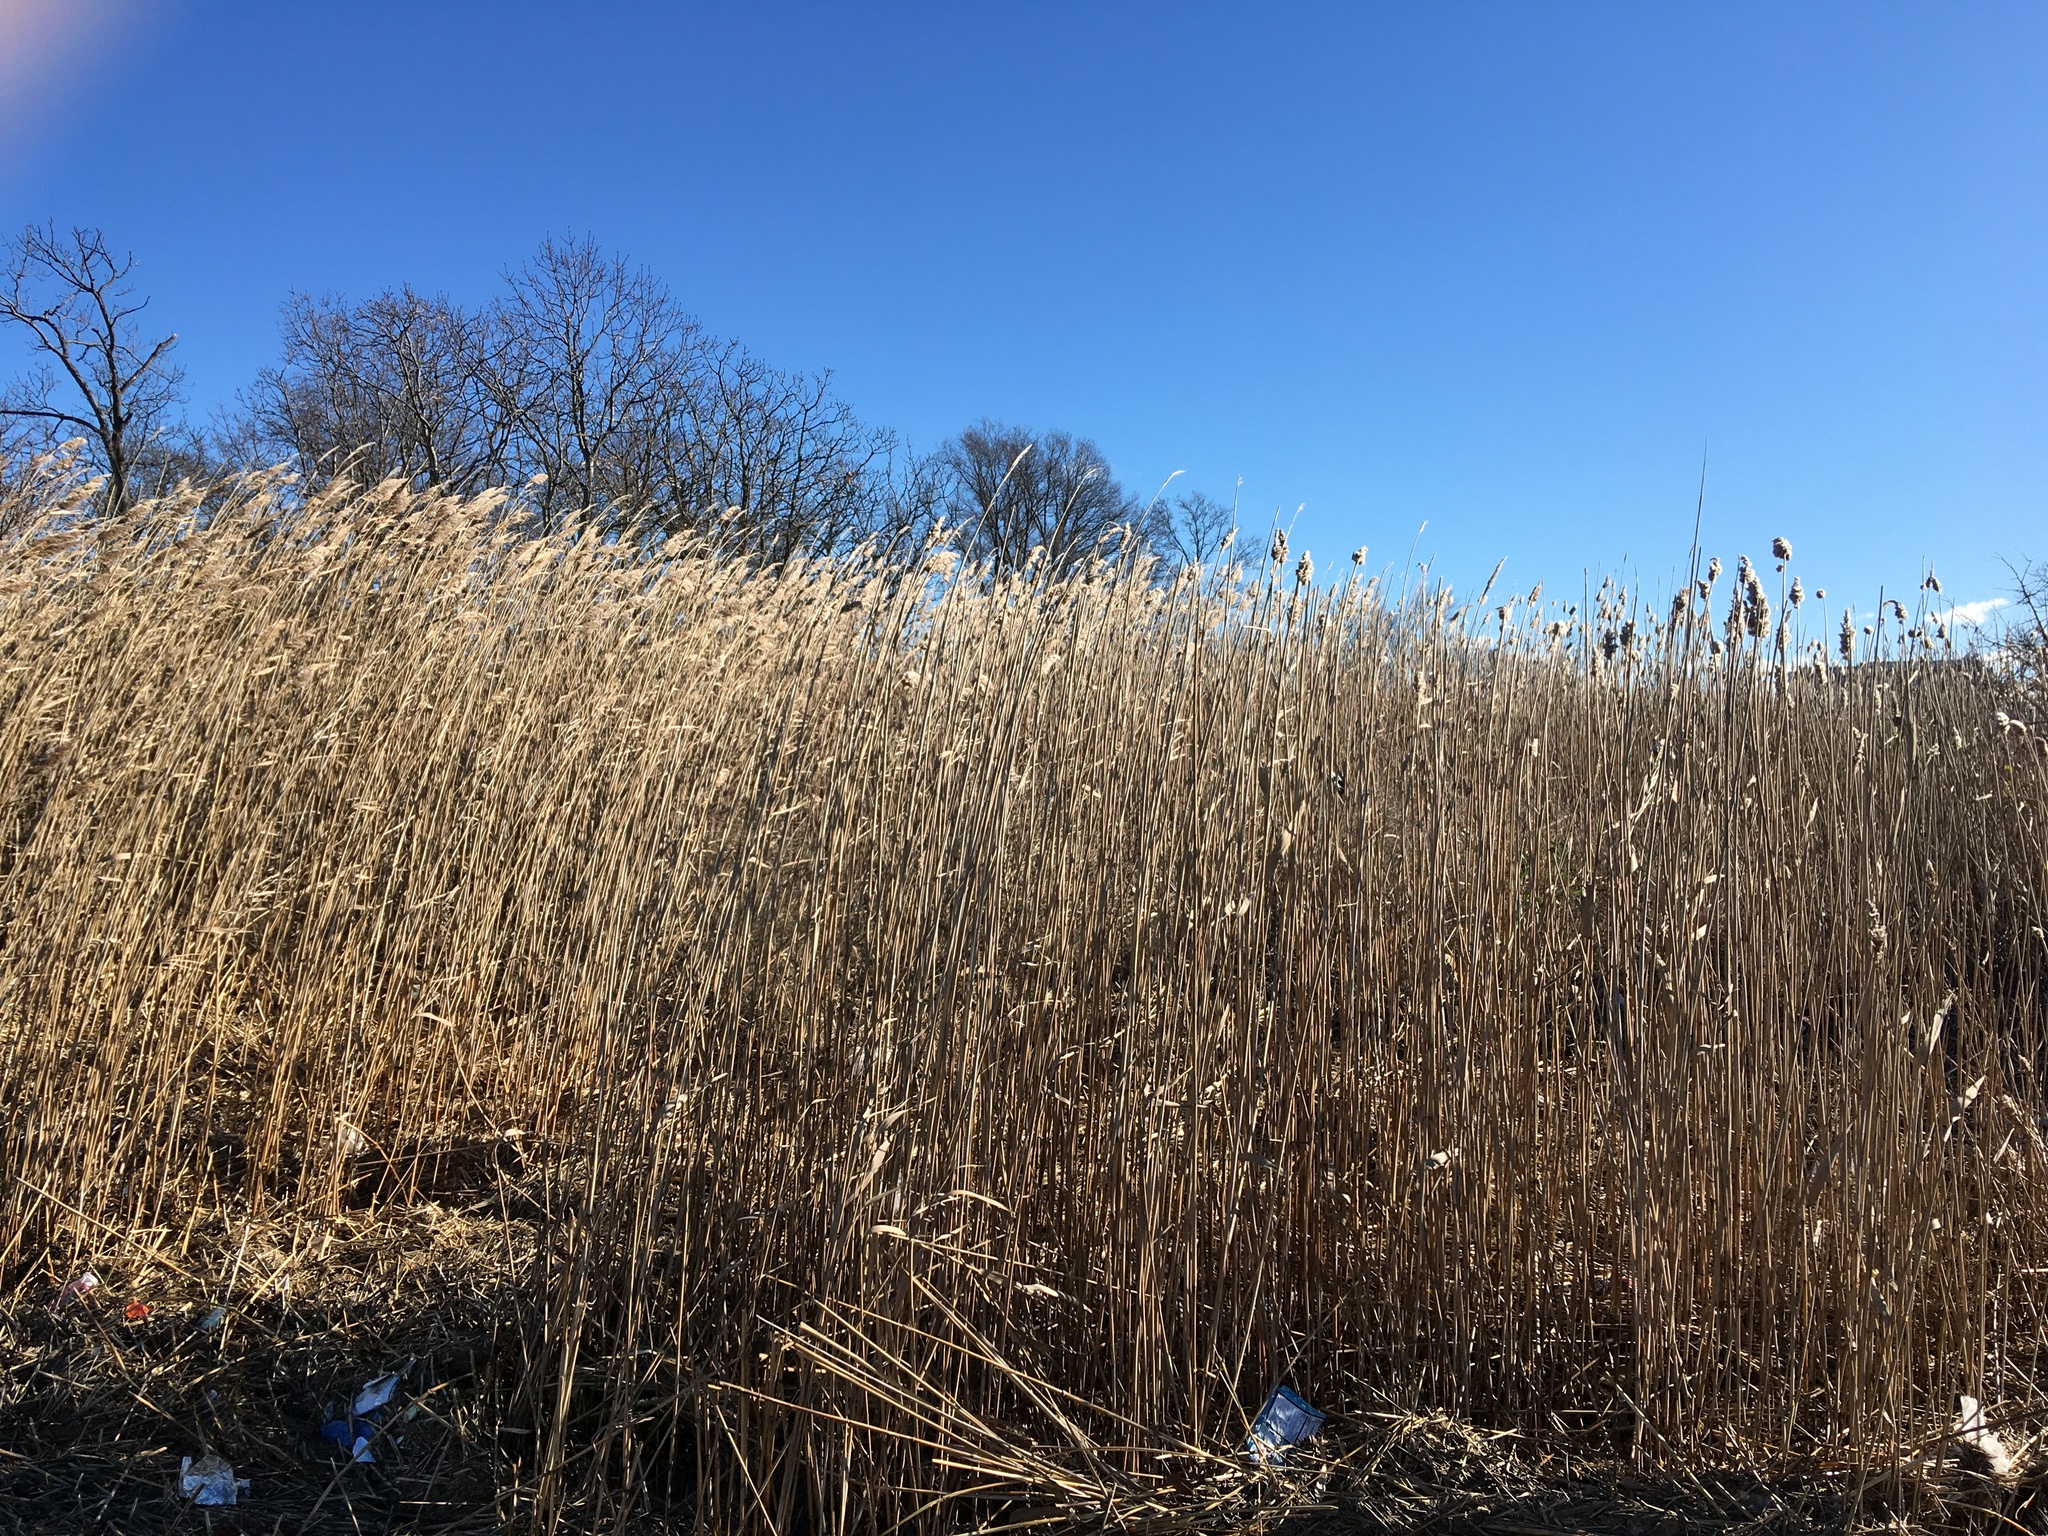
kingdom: Plantae
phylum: Tracheophyta
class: Liliopsida
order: Poales
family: Poaceae
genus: Phragmites
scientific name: Phragmites australis
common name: Common reed
